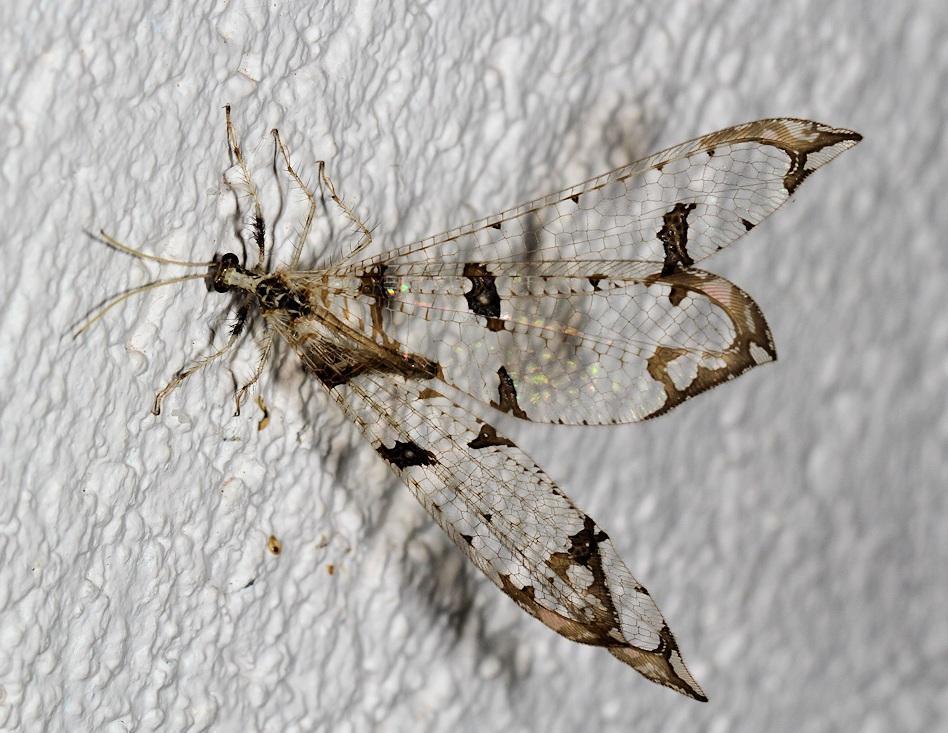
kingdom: Animalia
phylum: Arthropoda
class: Insecta
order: Neuroptera
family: Myrmeleontidae
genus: Cymothales
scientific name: Cymothales poultoni
